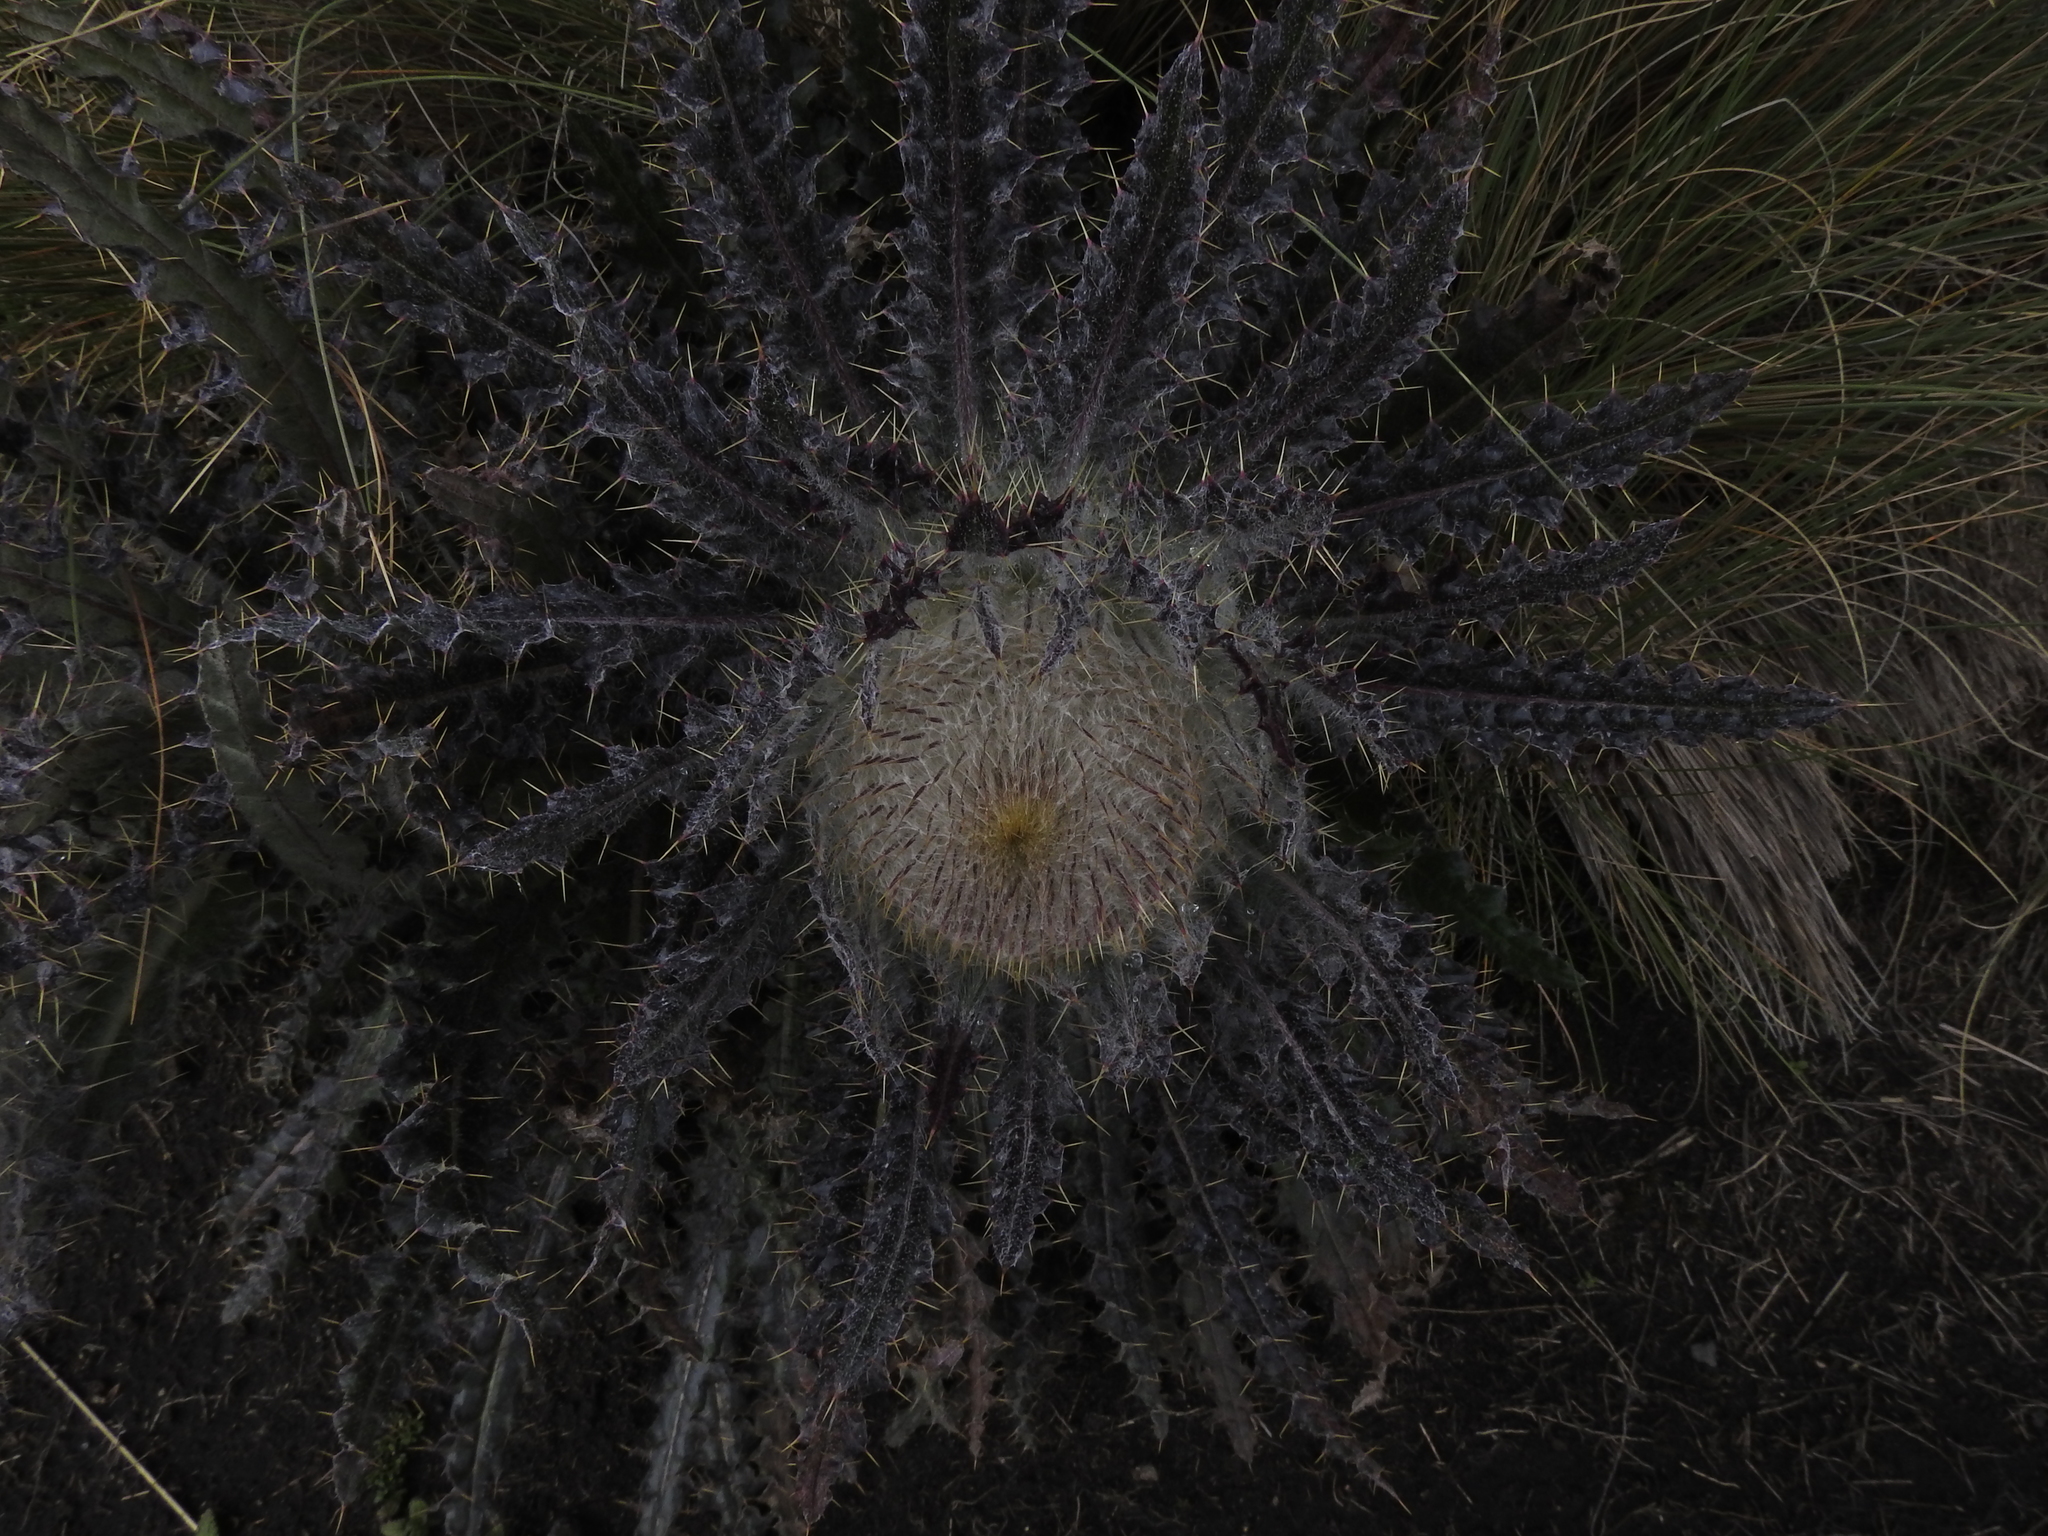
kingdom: Plantae
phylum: Tracheophyta
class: Magnoliopsida
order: Asterales
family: Asteraceae
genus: Cirsium
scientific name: Cirsium nivale
